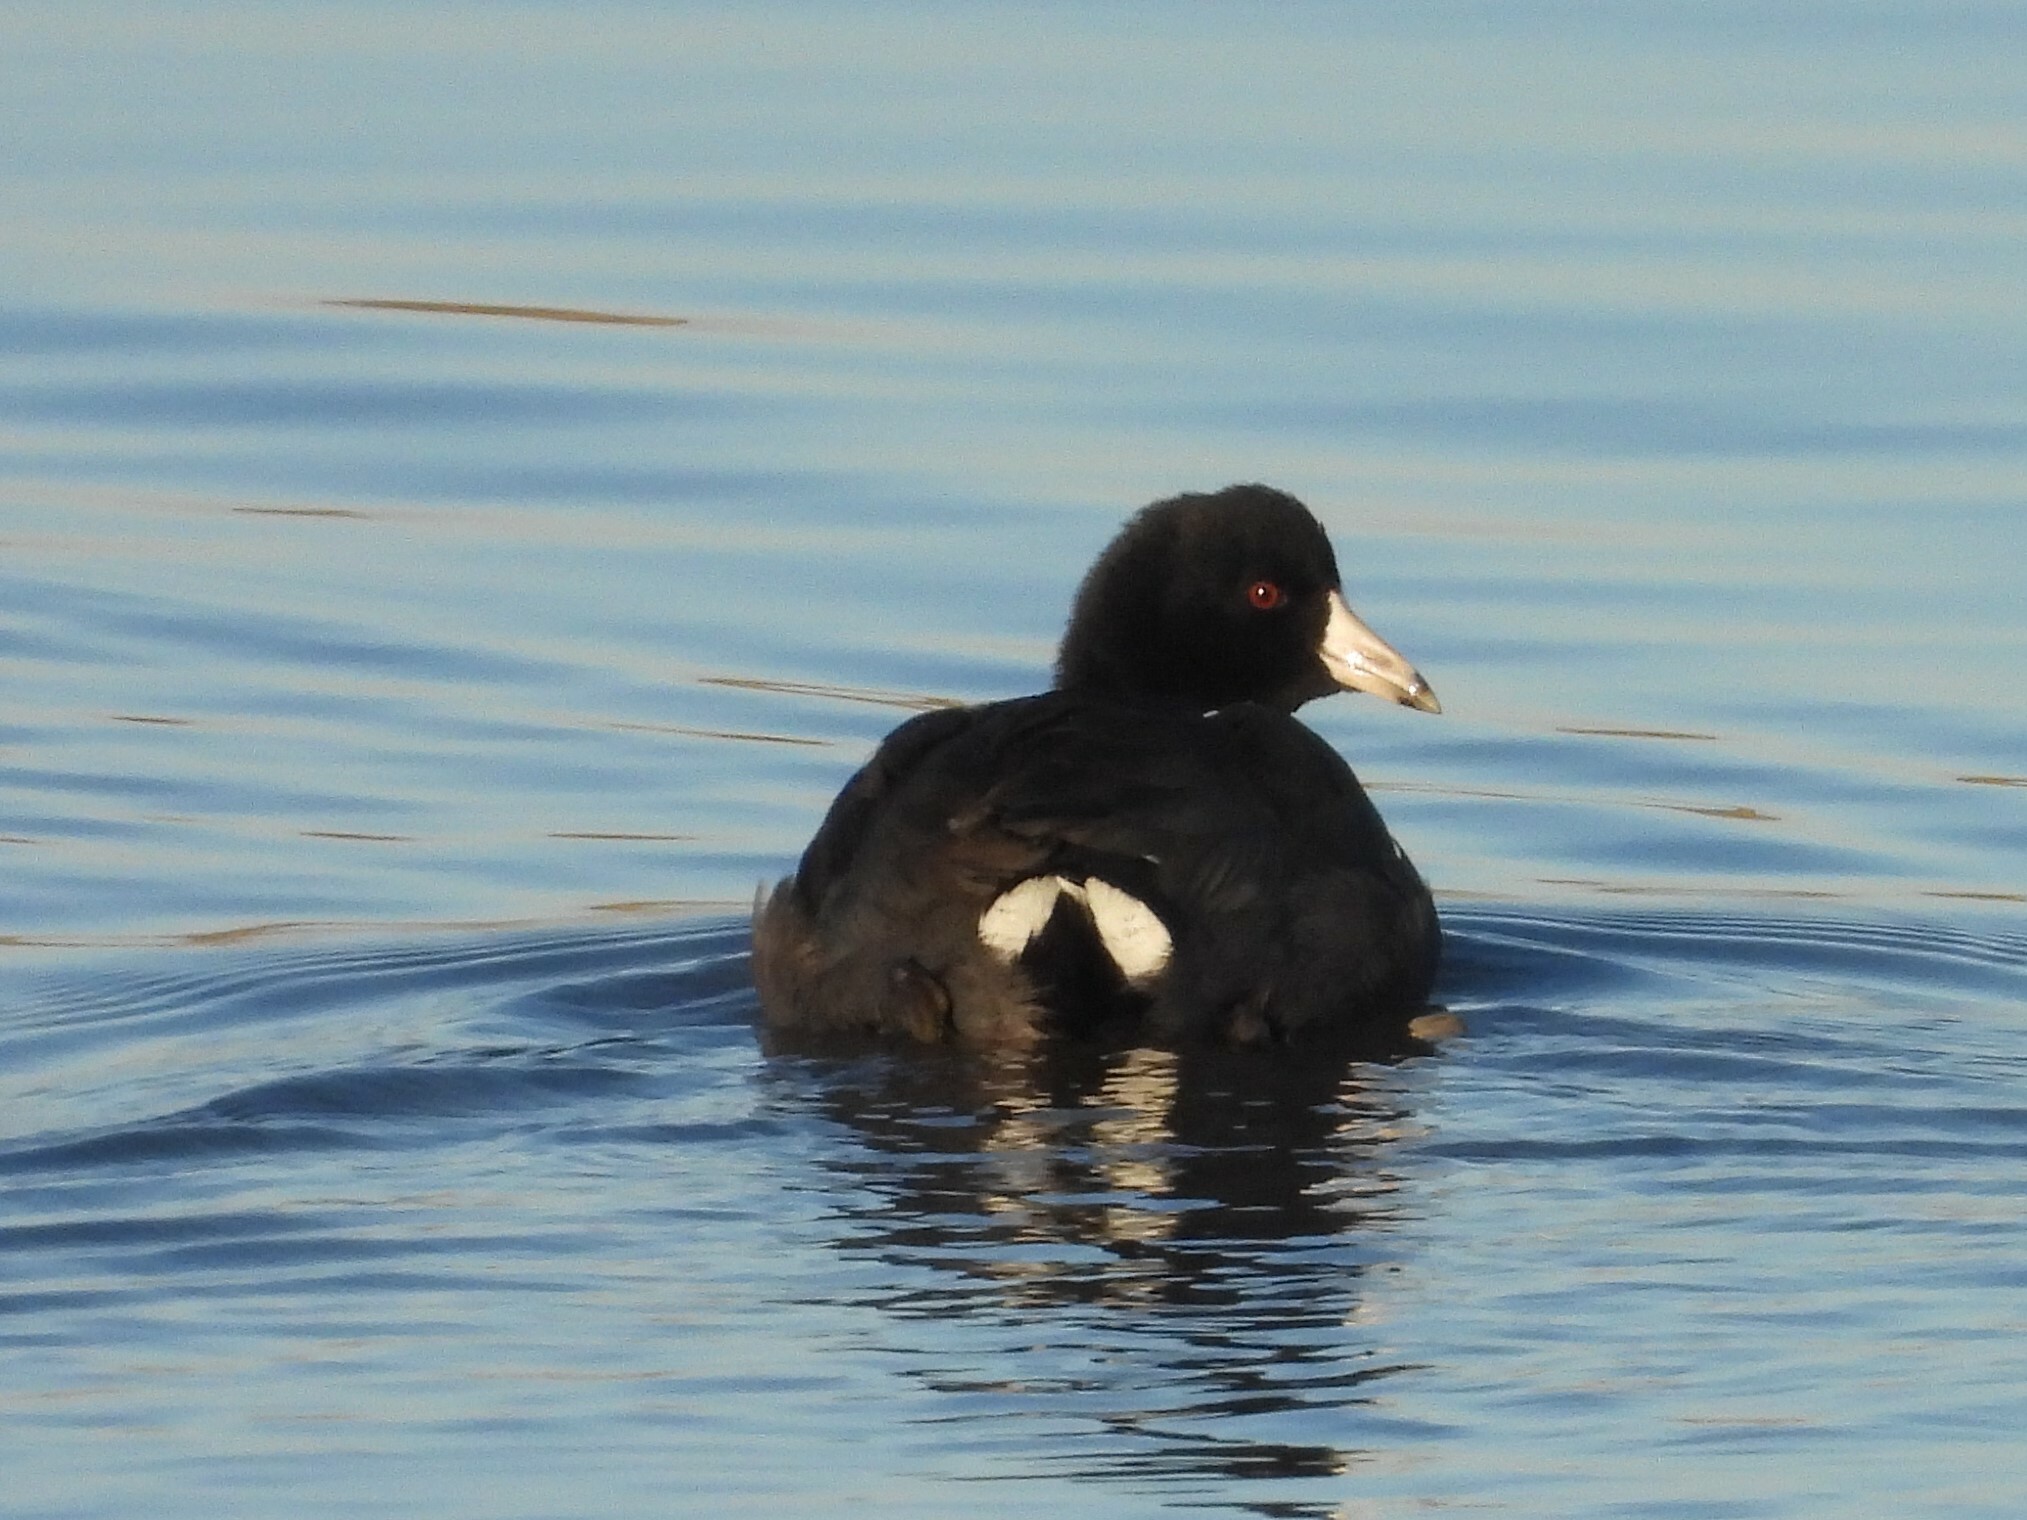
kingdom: Animalia
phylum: Chordata
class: Aves
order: Gruiformes
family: Rallidae
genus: Fulica
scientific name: Fulica americana
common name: American coot
